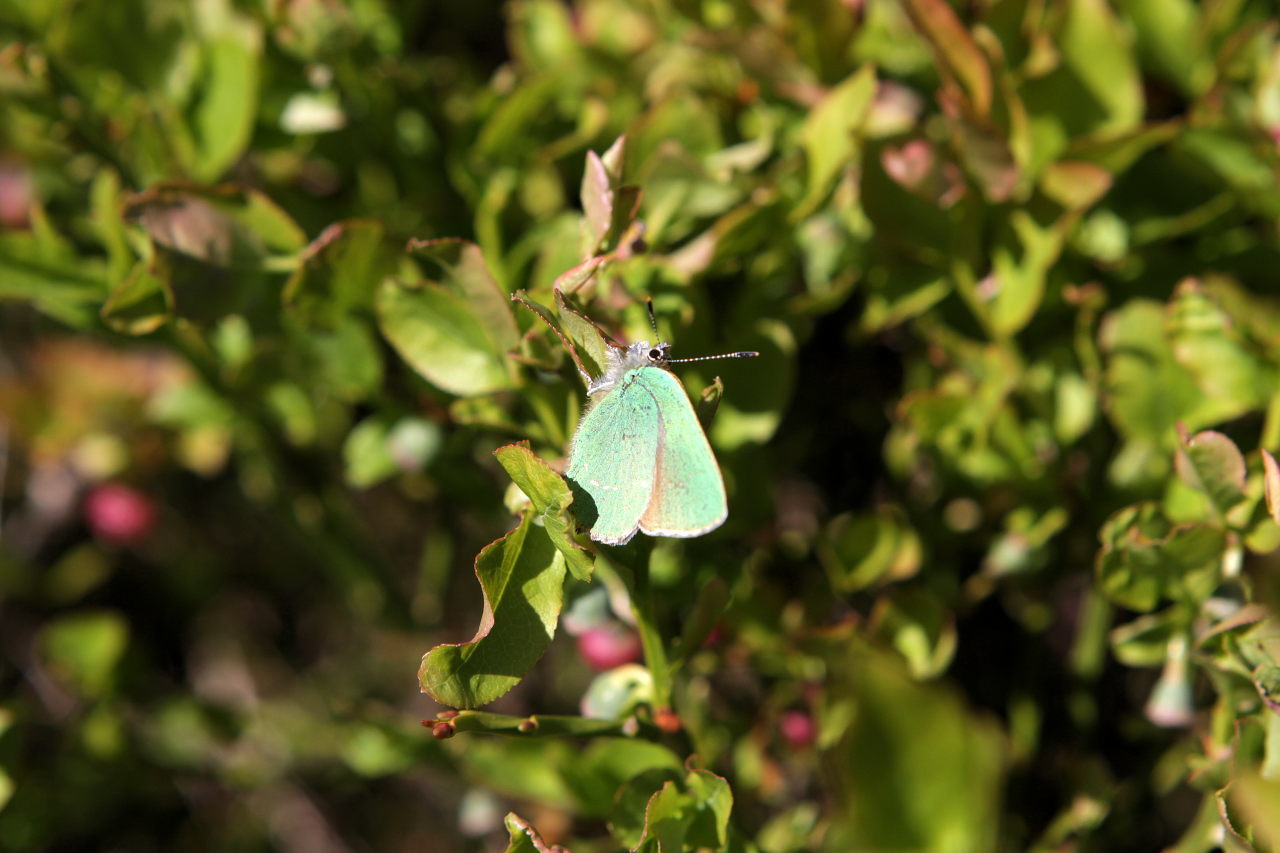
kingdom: Animalia
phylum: Arthropoda
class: Insecta
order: Lepidoptera
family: Lycaenidae
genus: Callophrys
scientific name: Callophrys rubi
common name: Green hairstreak
